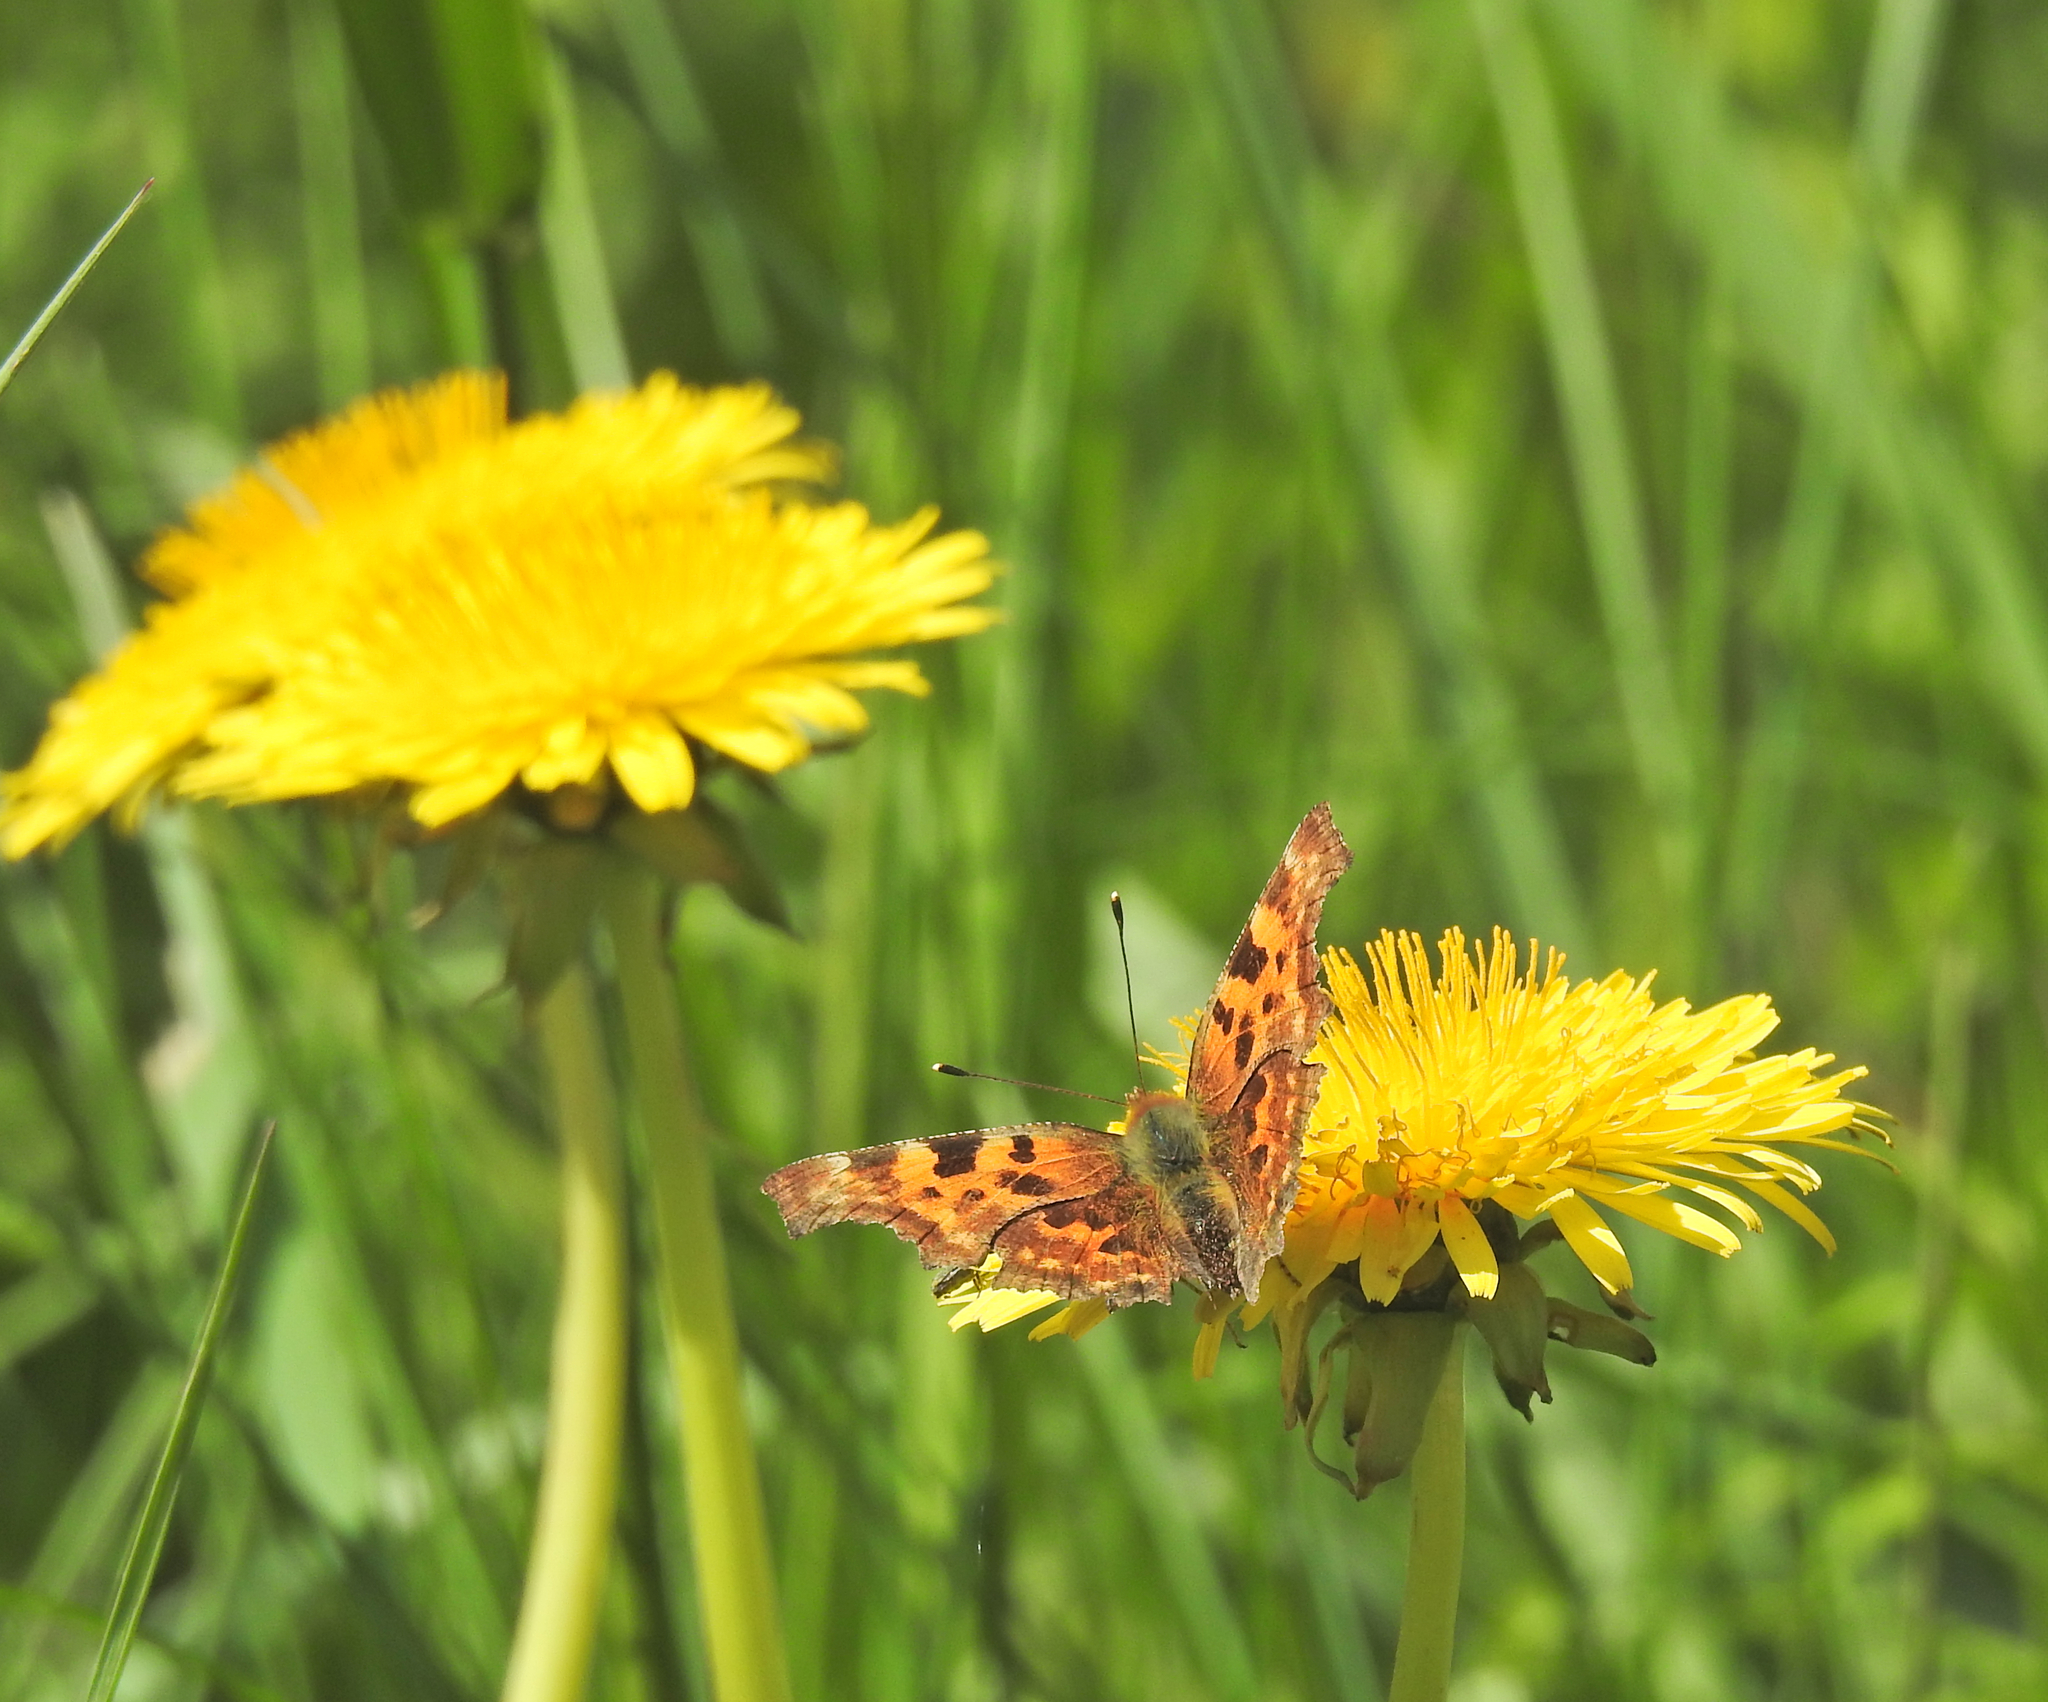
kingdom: Animalia
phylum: Arthropoda
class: Insecta
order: Lepidoptera
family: Nymphalidae
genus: Polygonia
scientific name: Polygonia c-album
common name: Comma
